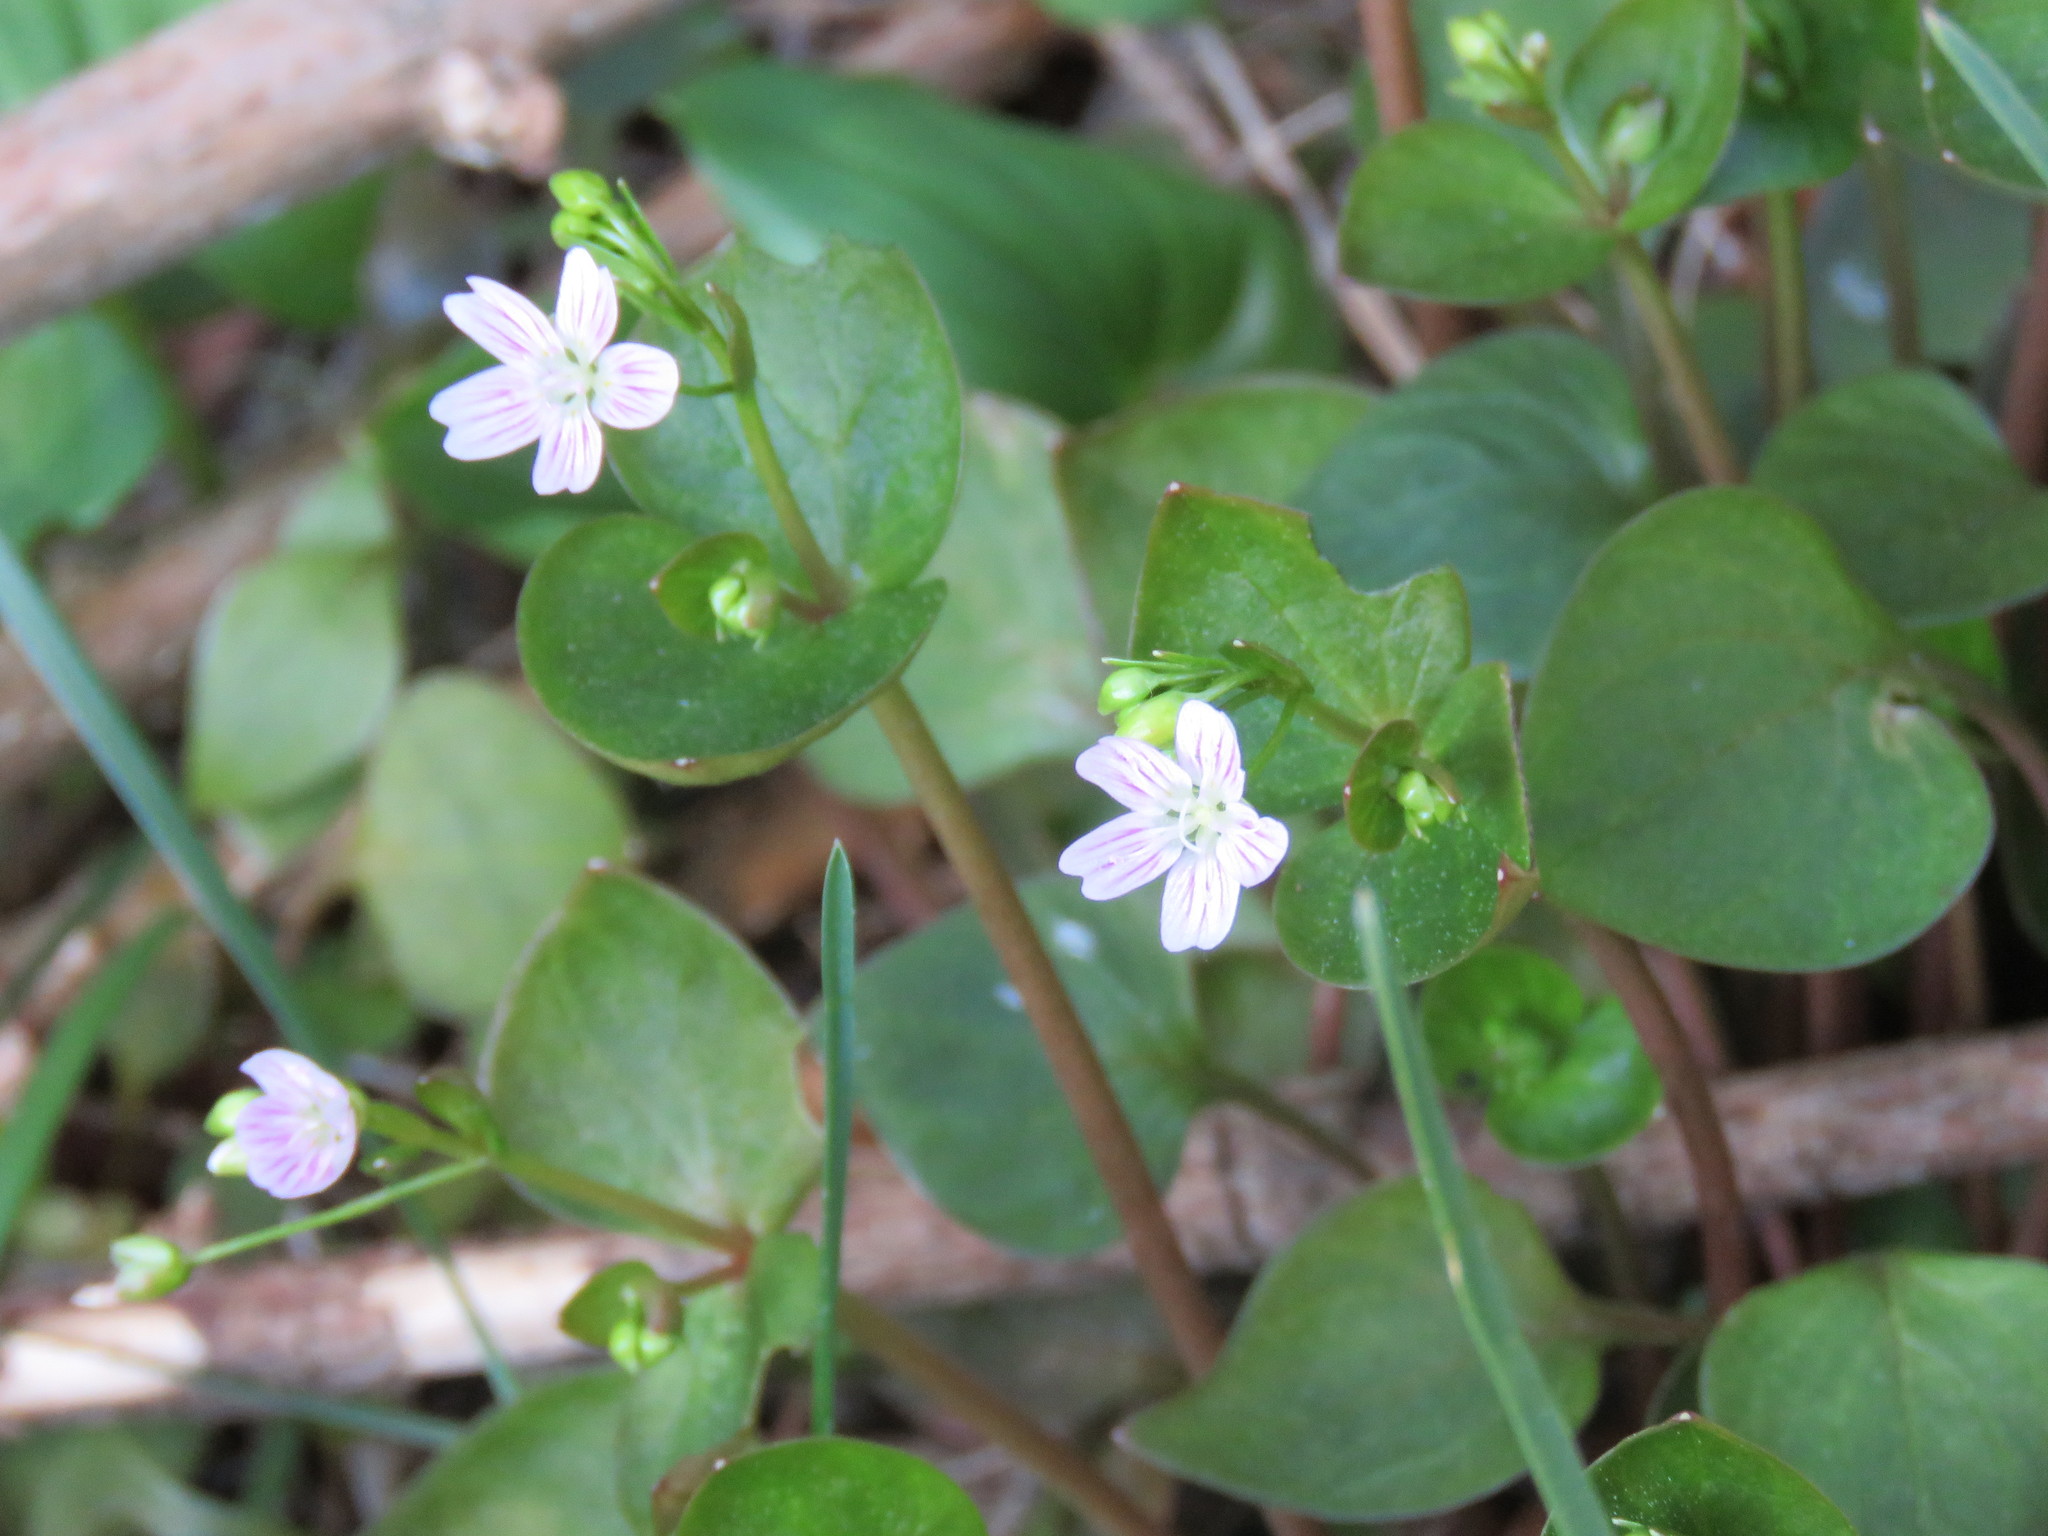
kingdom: Plantae
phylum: Tracheophyta
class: Magnoliopsida
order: Caryophyllales
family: Montiaceae
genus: Claytonia
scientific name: Claytonia sibirica
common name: Pink purslane
